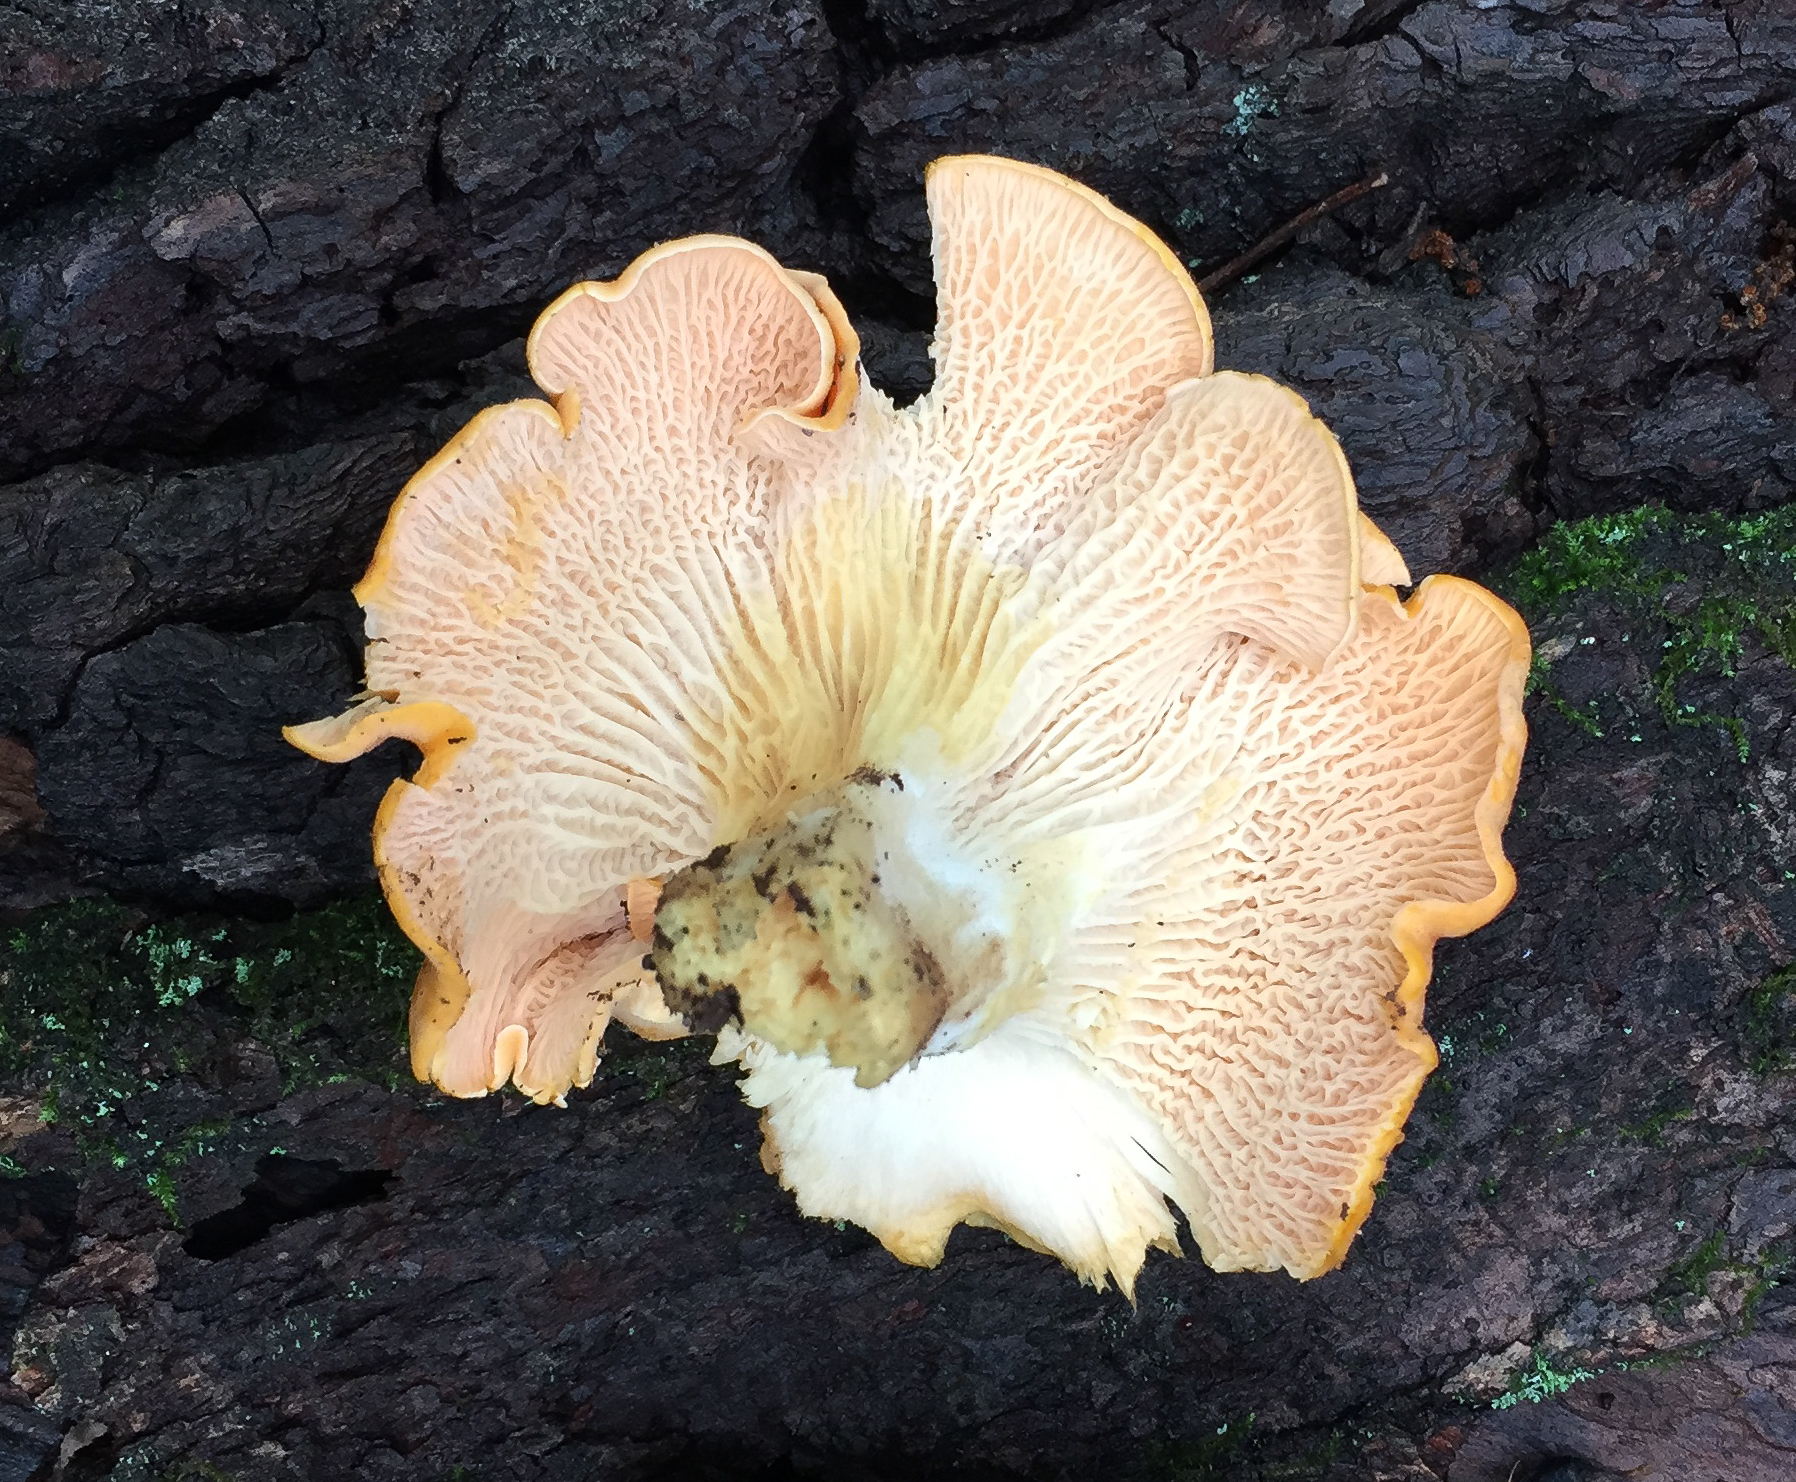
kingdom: Fungi
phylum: Basidiomycota
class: Agaricomycetes
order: Cantharellales
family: Hydnaceae
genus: Cantharellus
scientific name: Cantharellus velutinus
